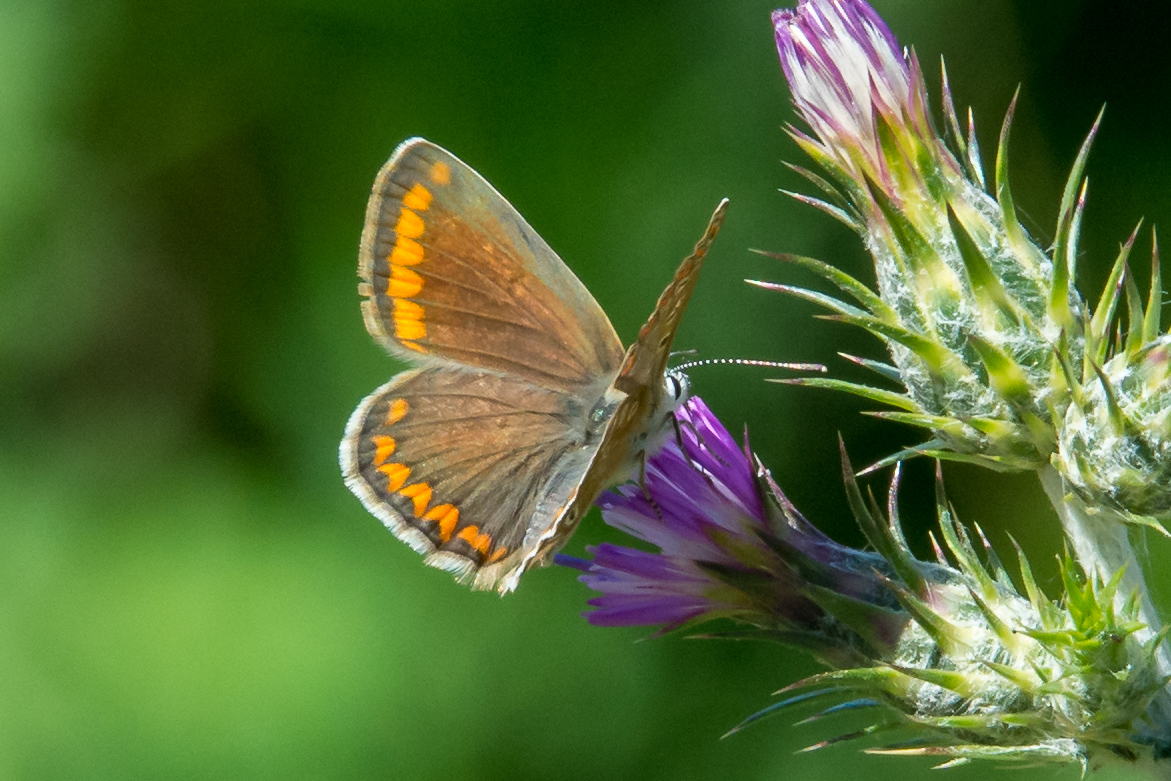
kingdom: Animalia
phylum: Arthropoda
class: Insecta
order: Lepidoptera
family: Lycaenidae
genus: Polyommatus
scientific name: Polyommatus celina
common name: Austaut's blue
